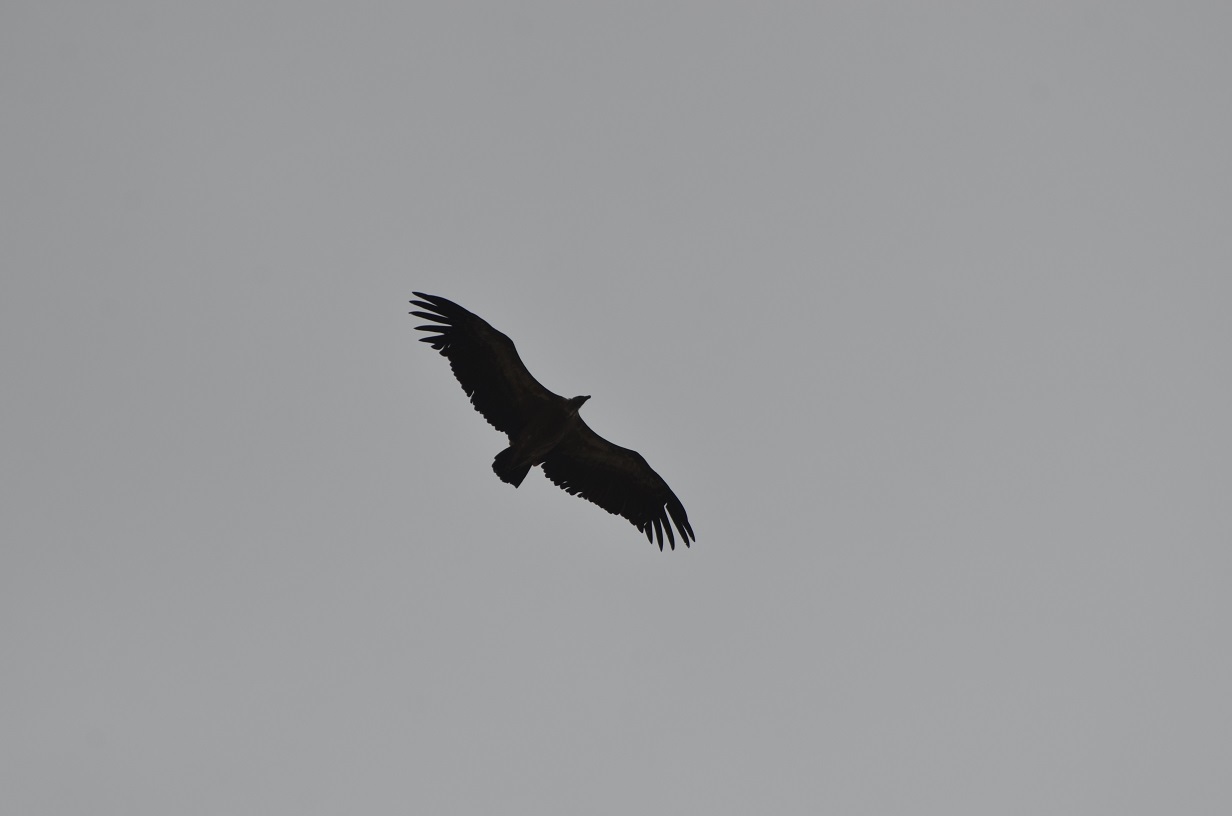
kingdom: Animalia
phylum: Chordata
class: Aves
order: Accipitriformes
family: Accipitridae
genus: Gyps
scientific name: Gyps fulvus
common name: Griffon vulture
